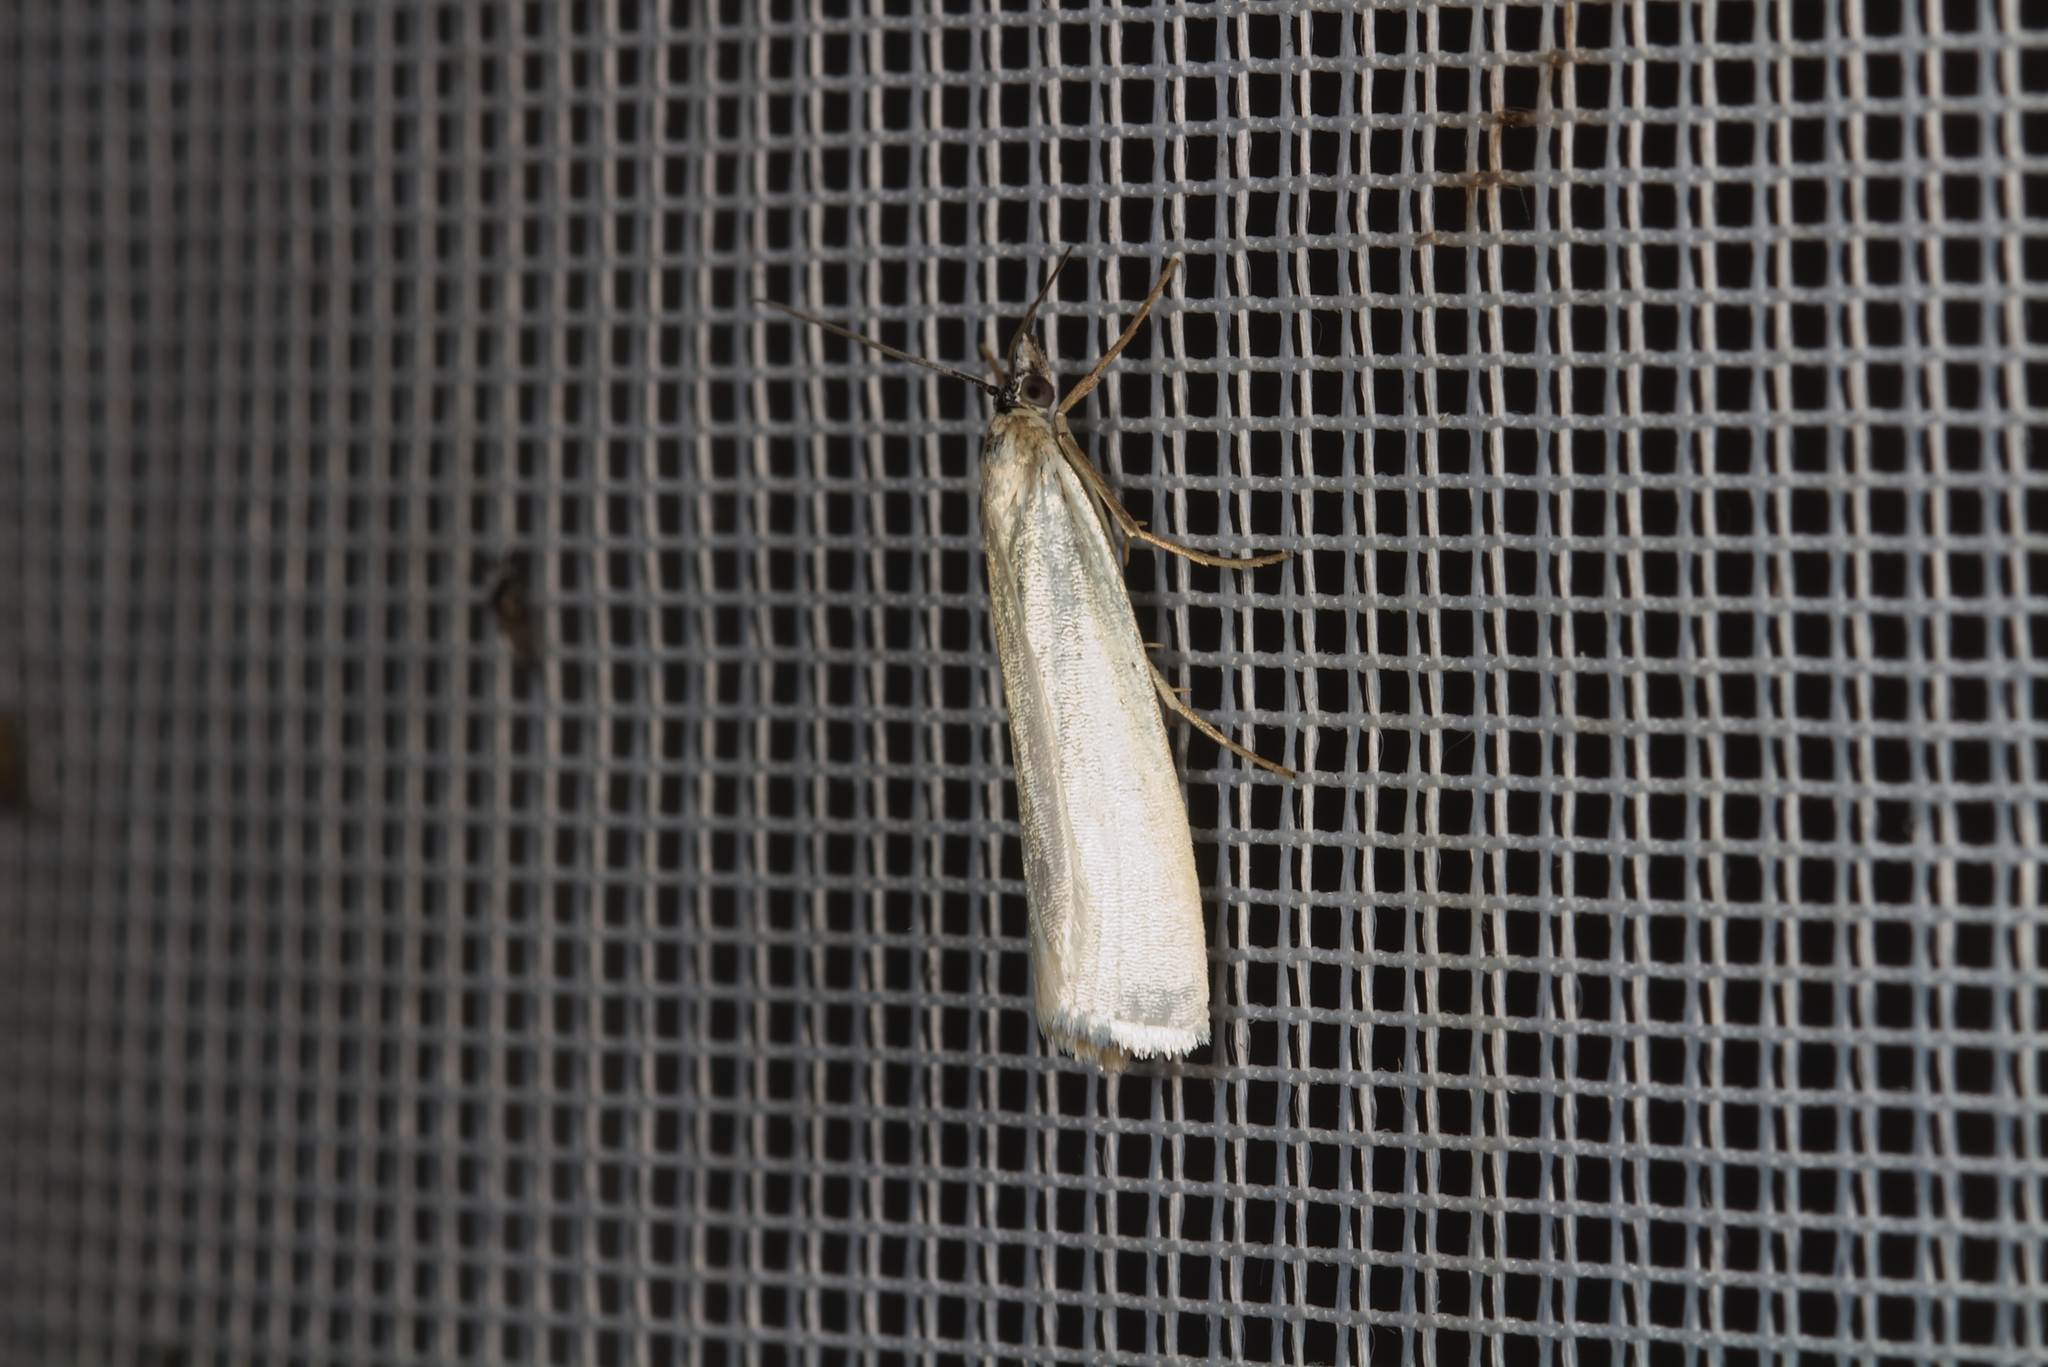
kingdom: Animalia
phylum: Arthropoda
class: Insecta
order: Lepidoptera
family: Crambidae
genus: Crambus
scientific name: Crambus perlellus
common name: Yellow satin veneer
